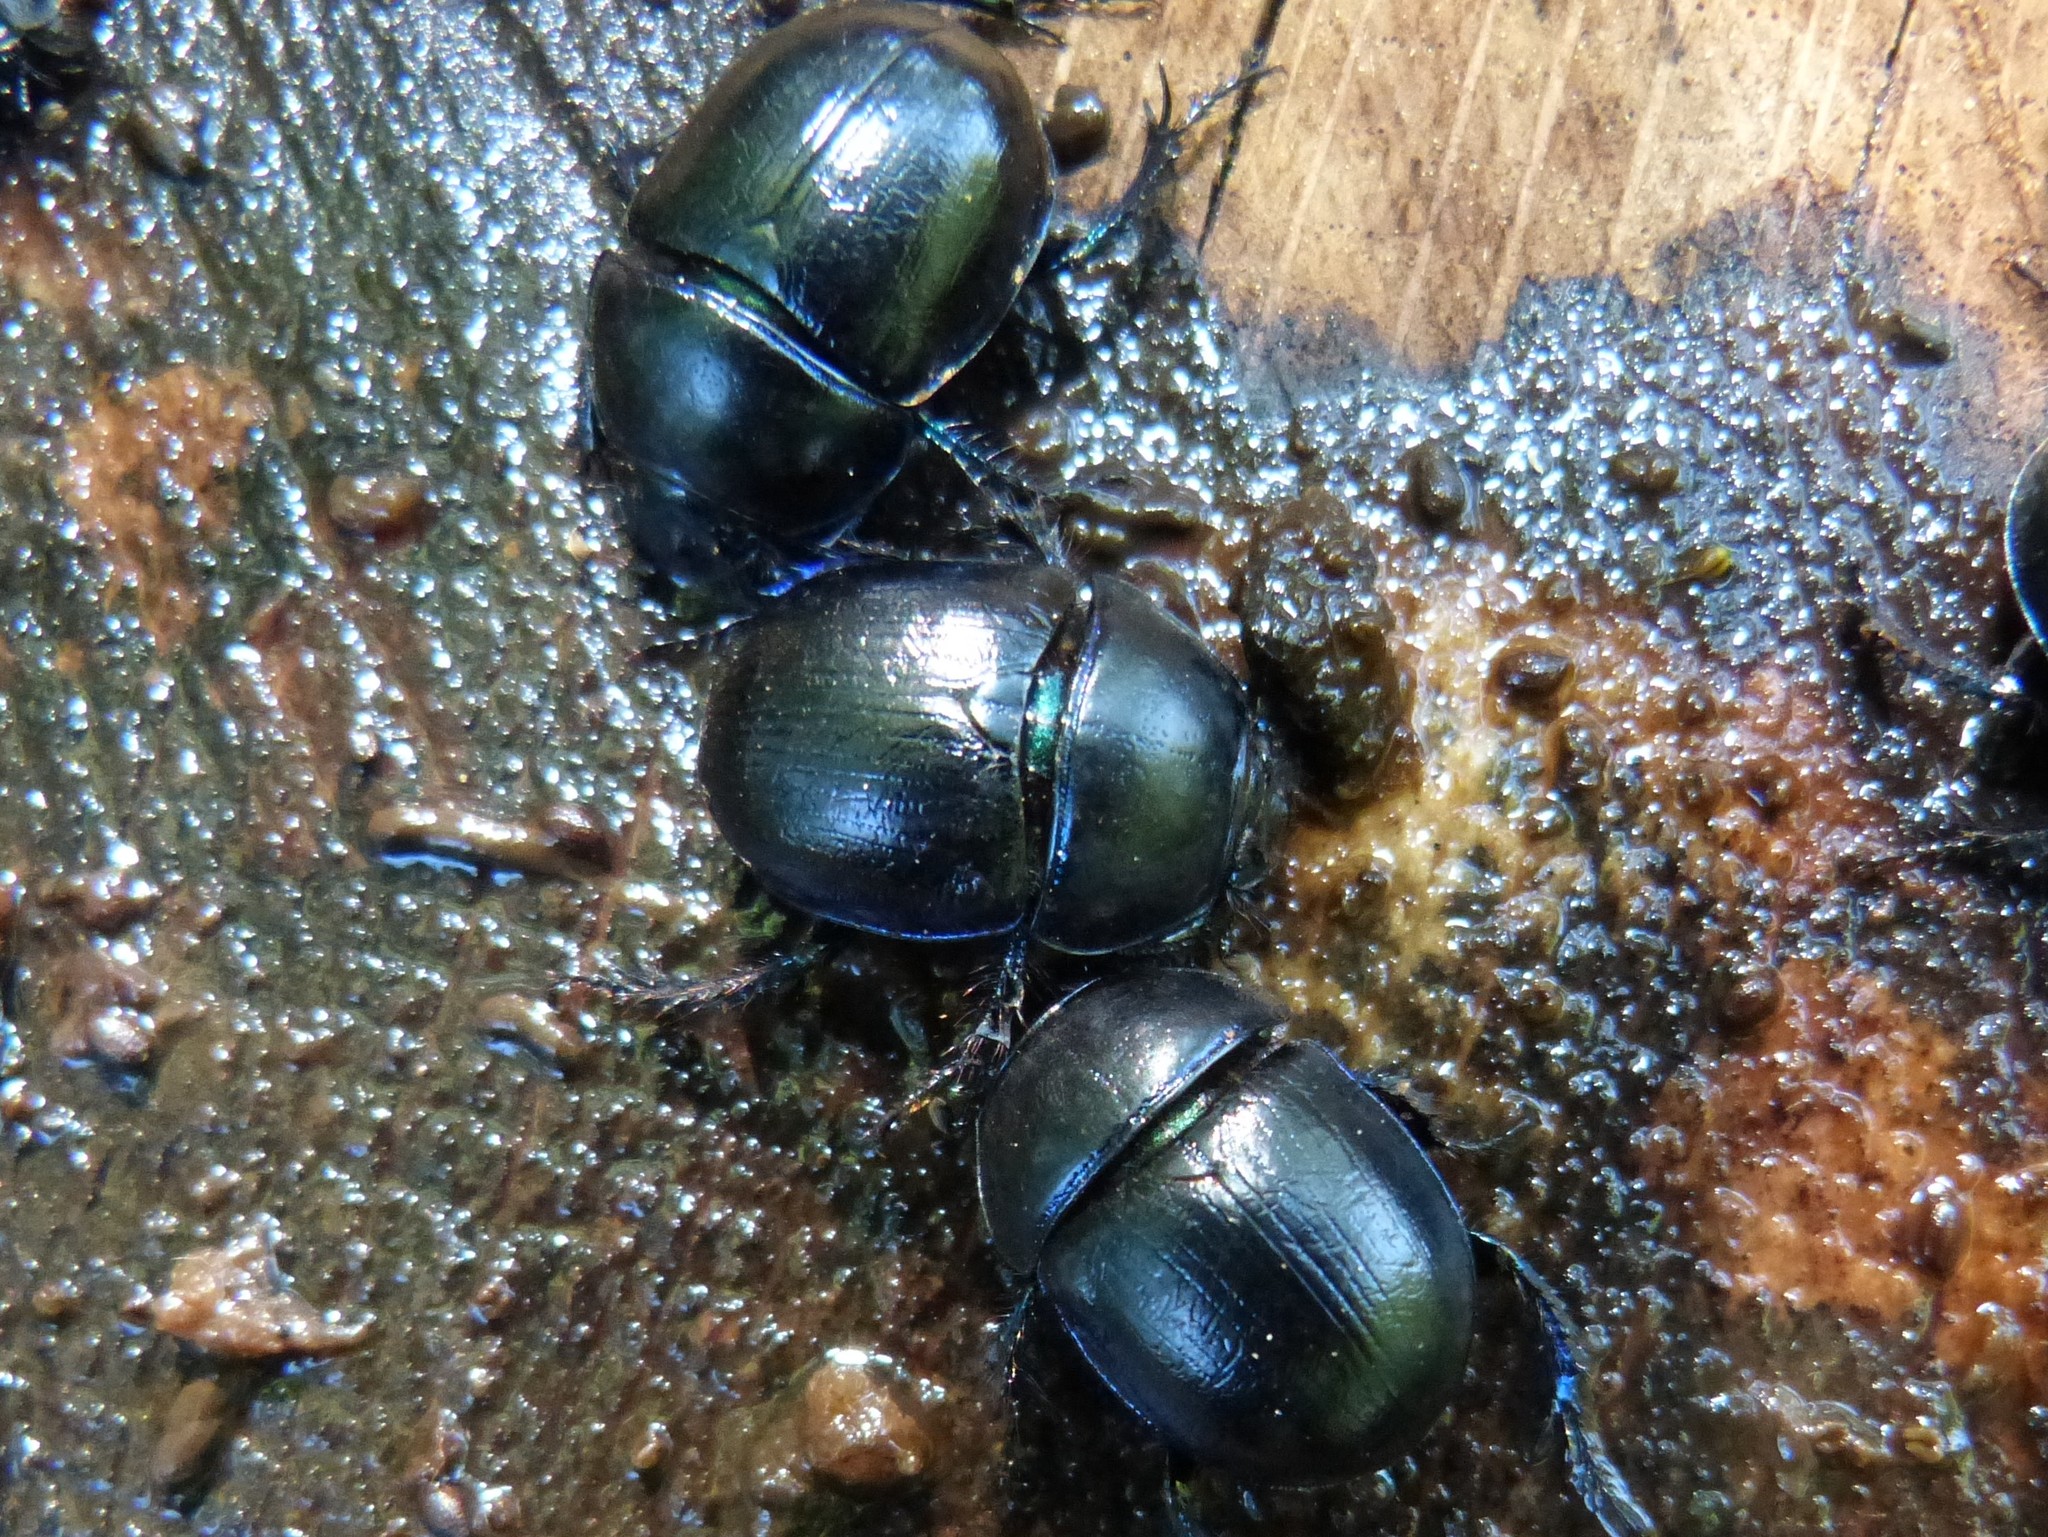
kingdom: Animalia
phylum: Arthropoda
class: Insecta
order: Coleoptera
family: Geotrupidae
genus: Anoplotrupes
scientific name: Anoplotrupes stercorosus
